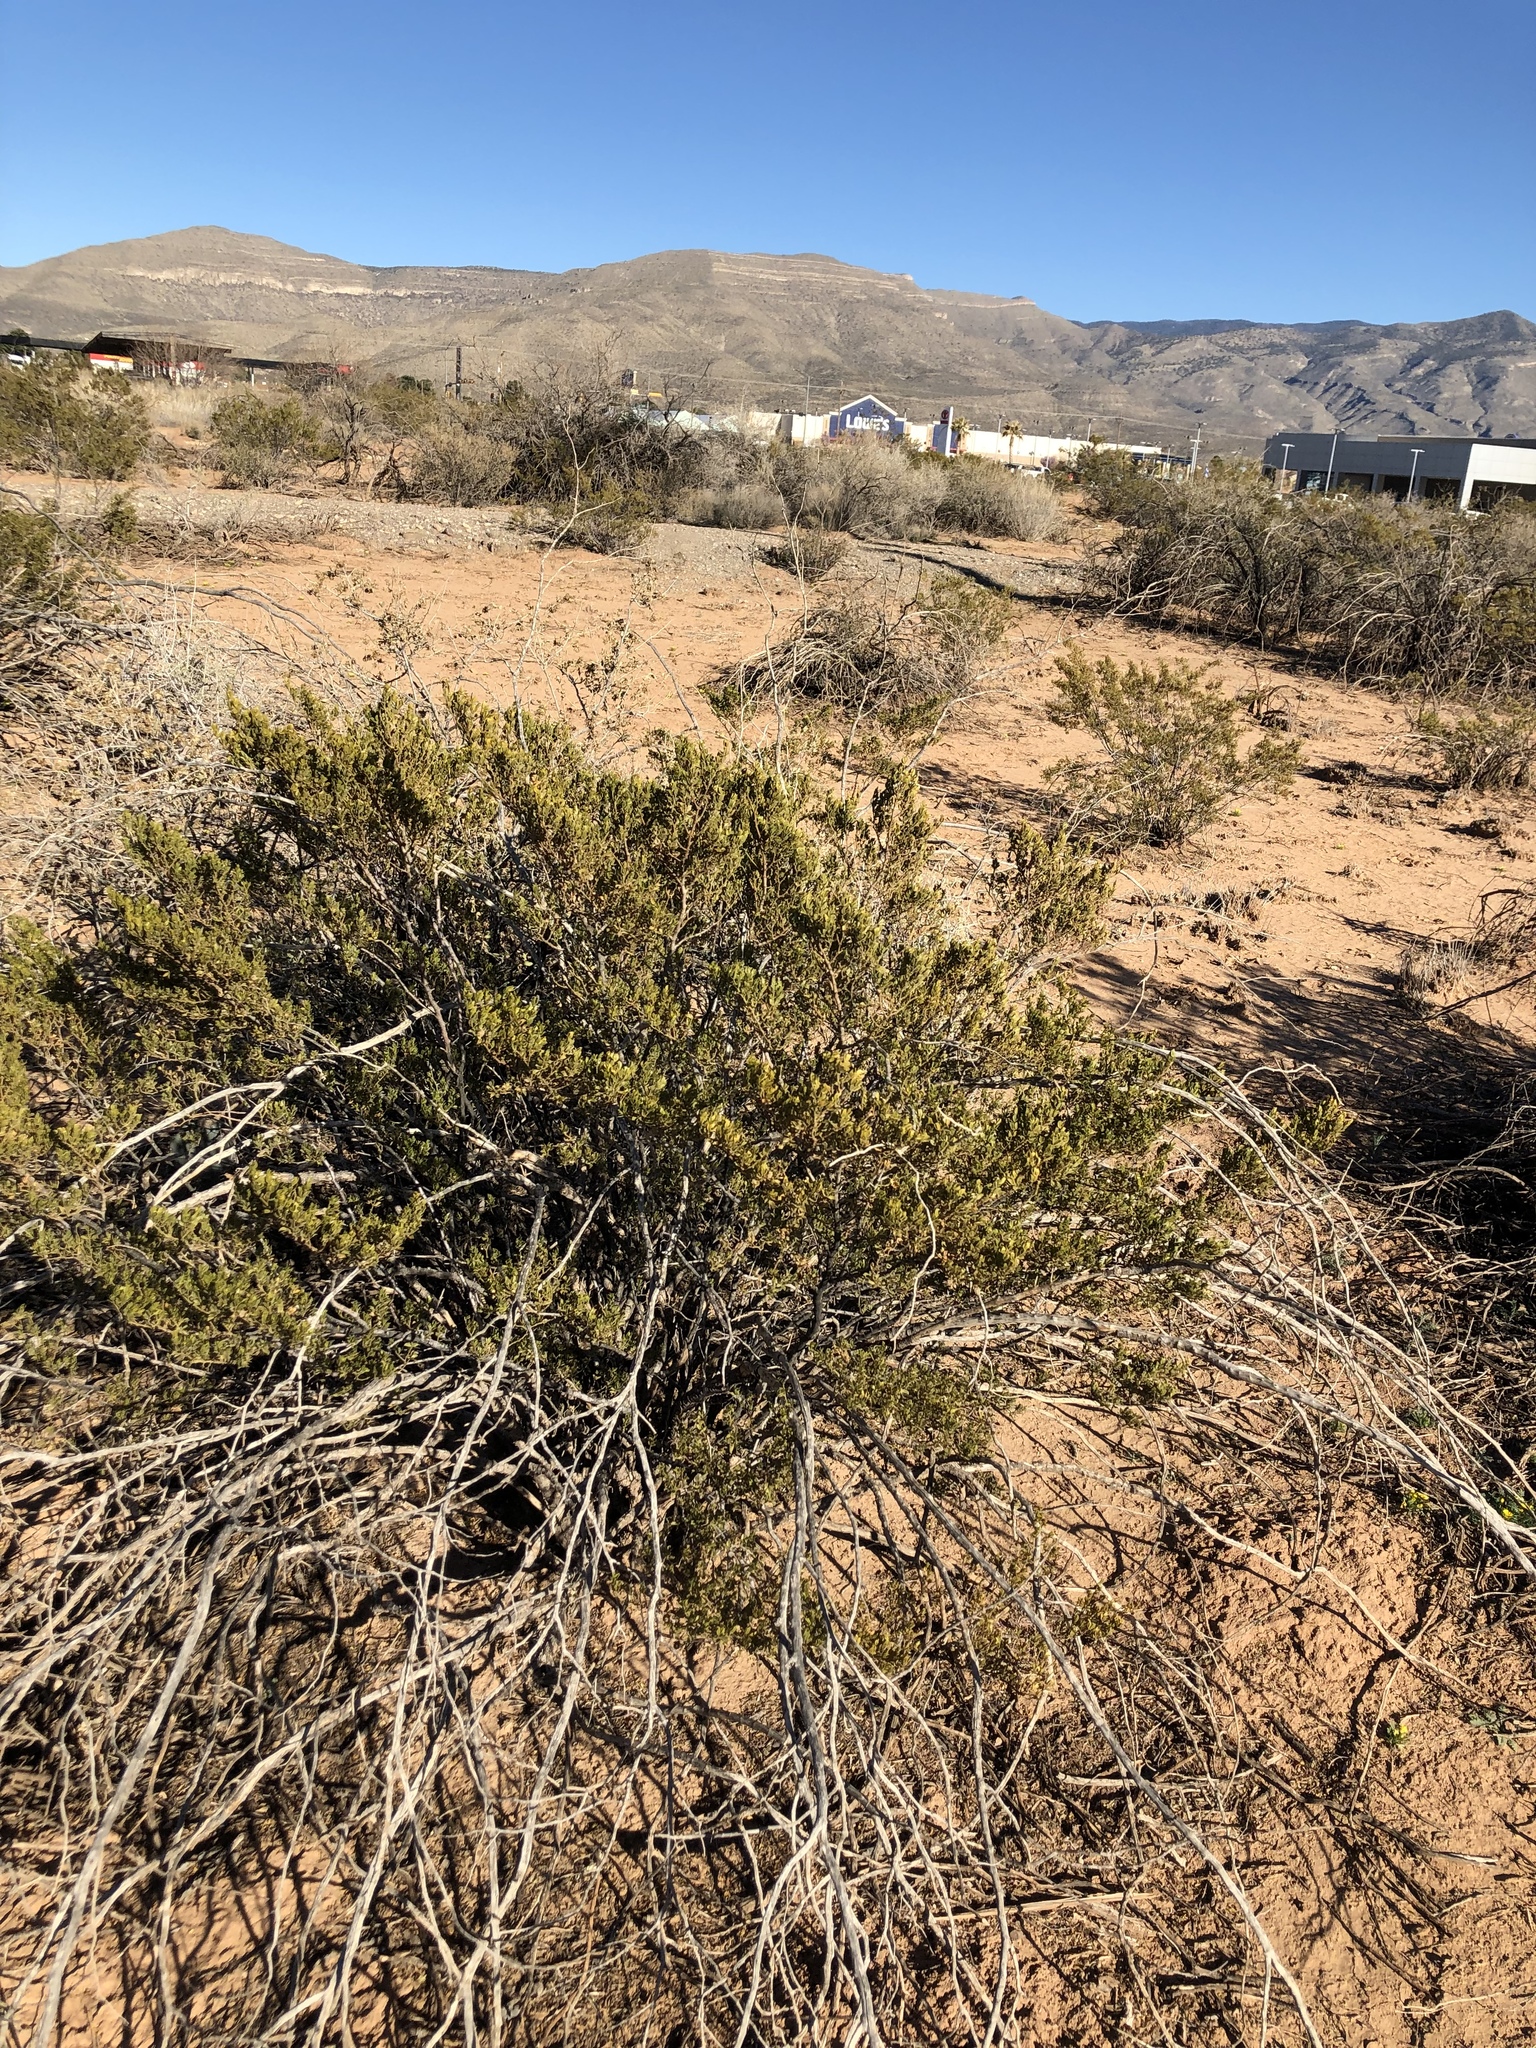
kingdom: Plantae
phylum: Tracheophyta
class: Magnoliopsida
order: Zygophyllales
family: Zygophyllaceae
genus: Larrea
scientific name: Larrea tridentata
